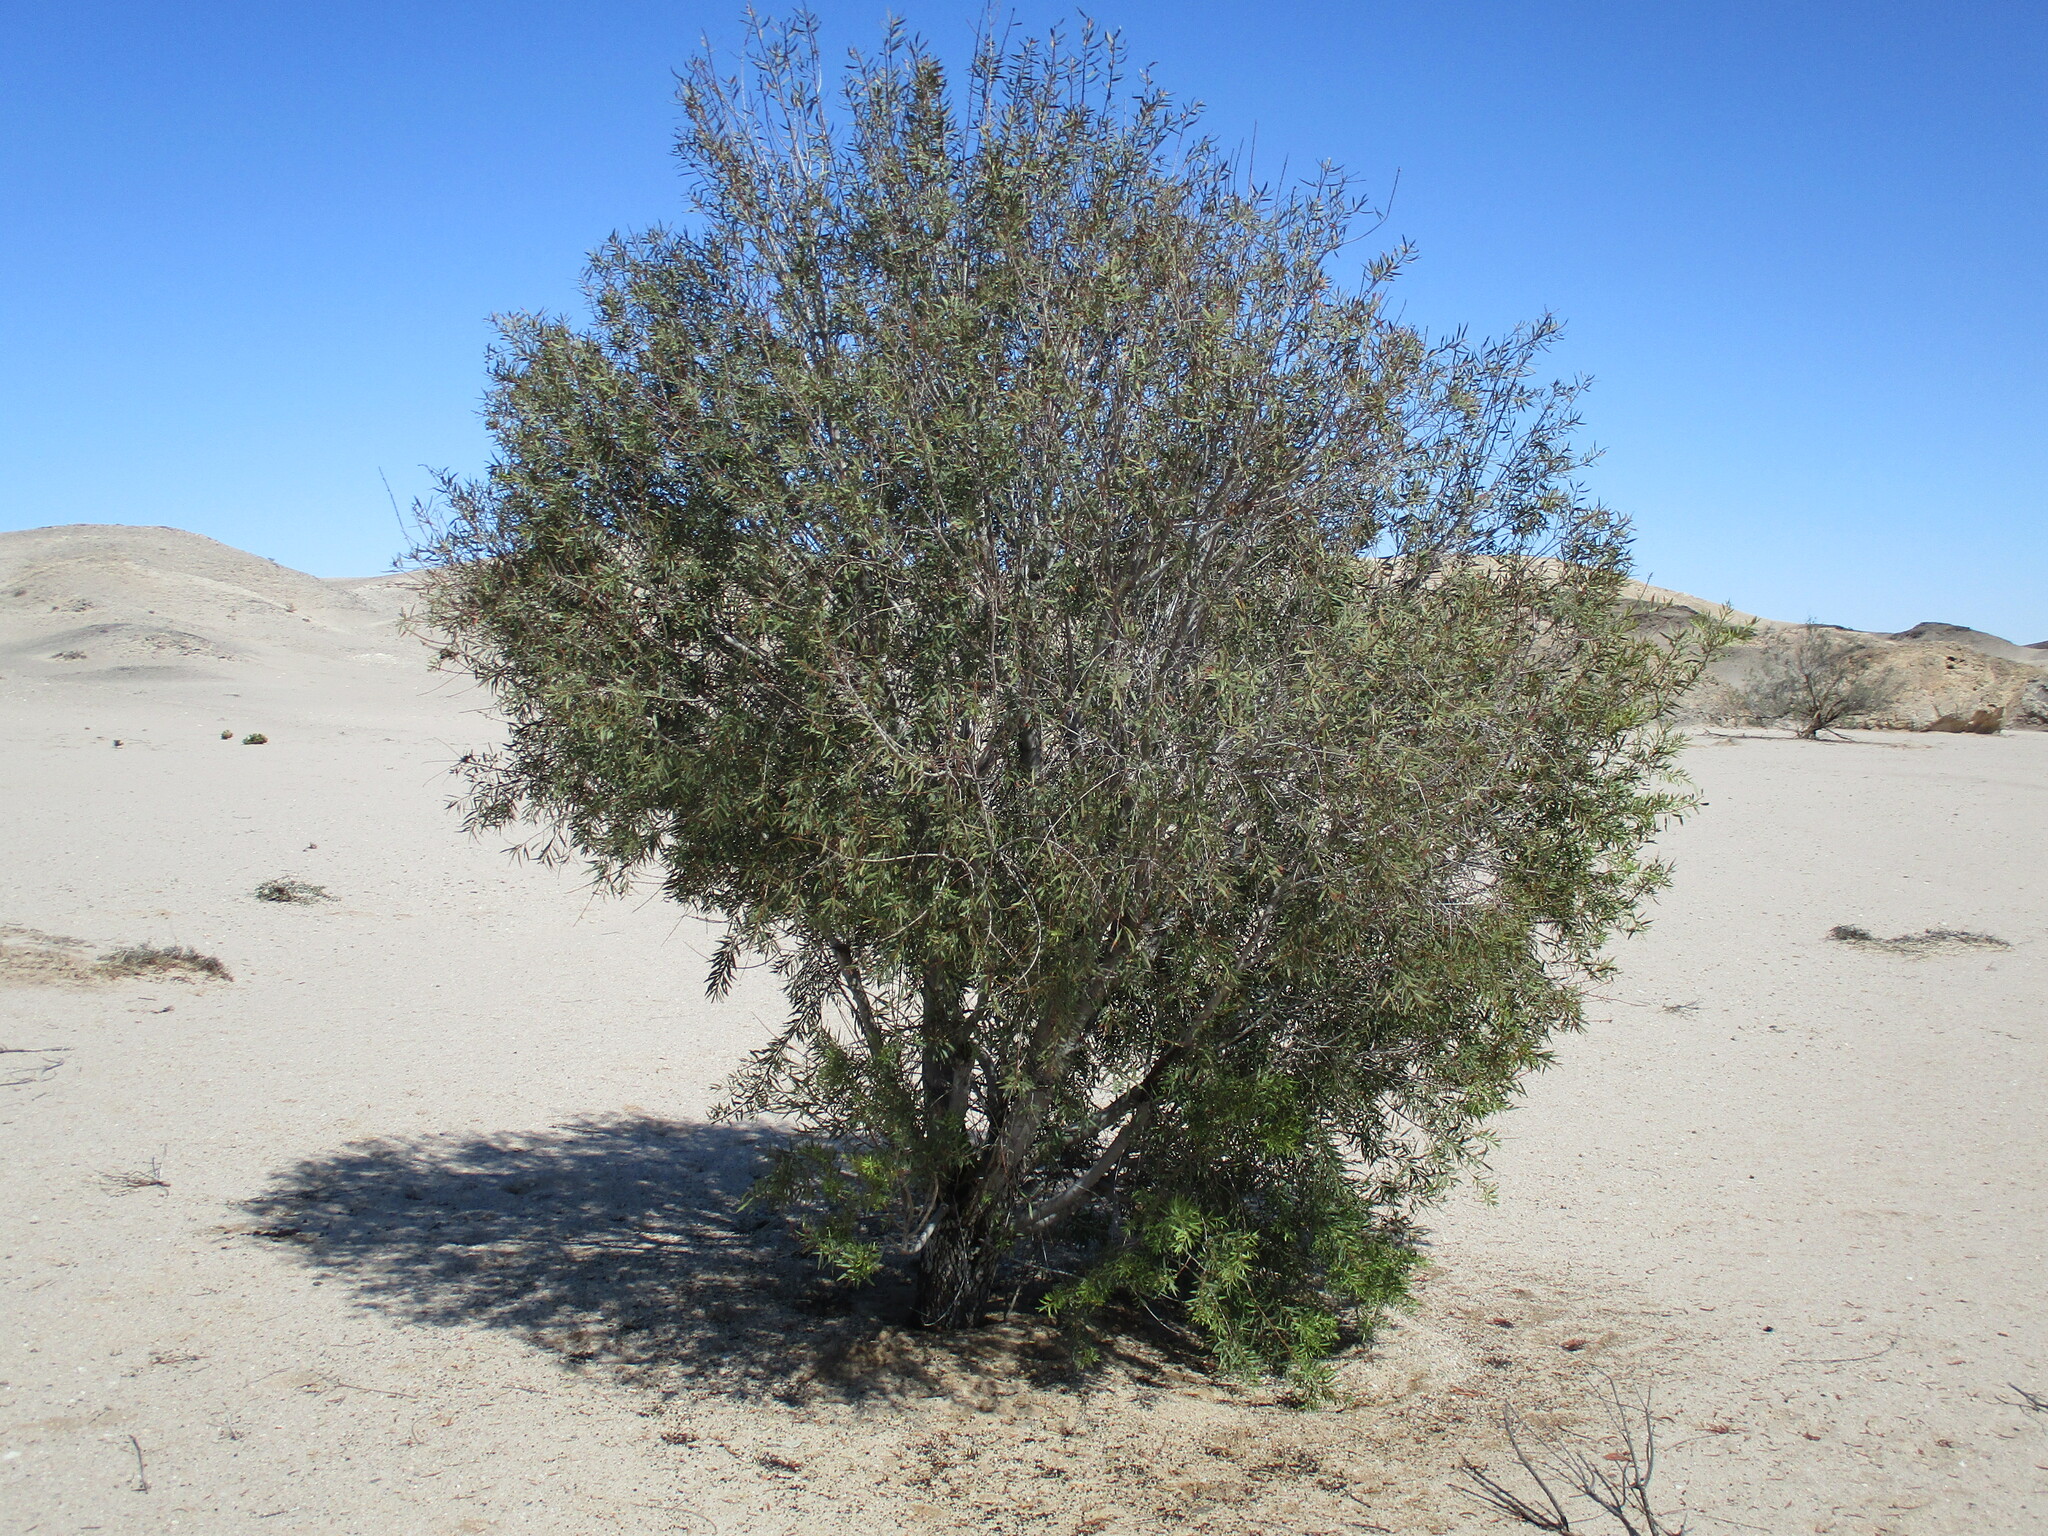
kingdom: Plantae
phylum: Tracheophyta
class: Magnoliopsida
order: Ericales
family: Ebenaceae
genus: Euclea
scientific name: Euclea pseudebenus
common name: Black ebony
